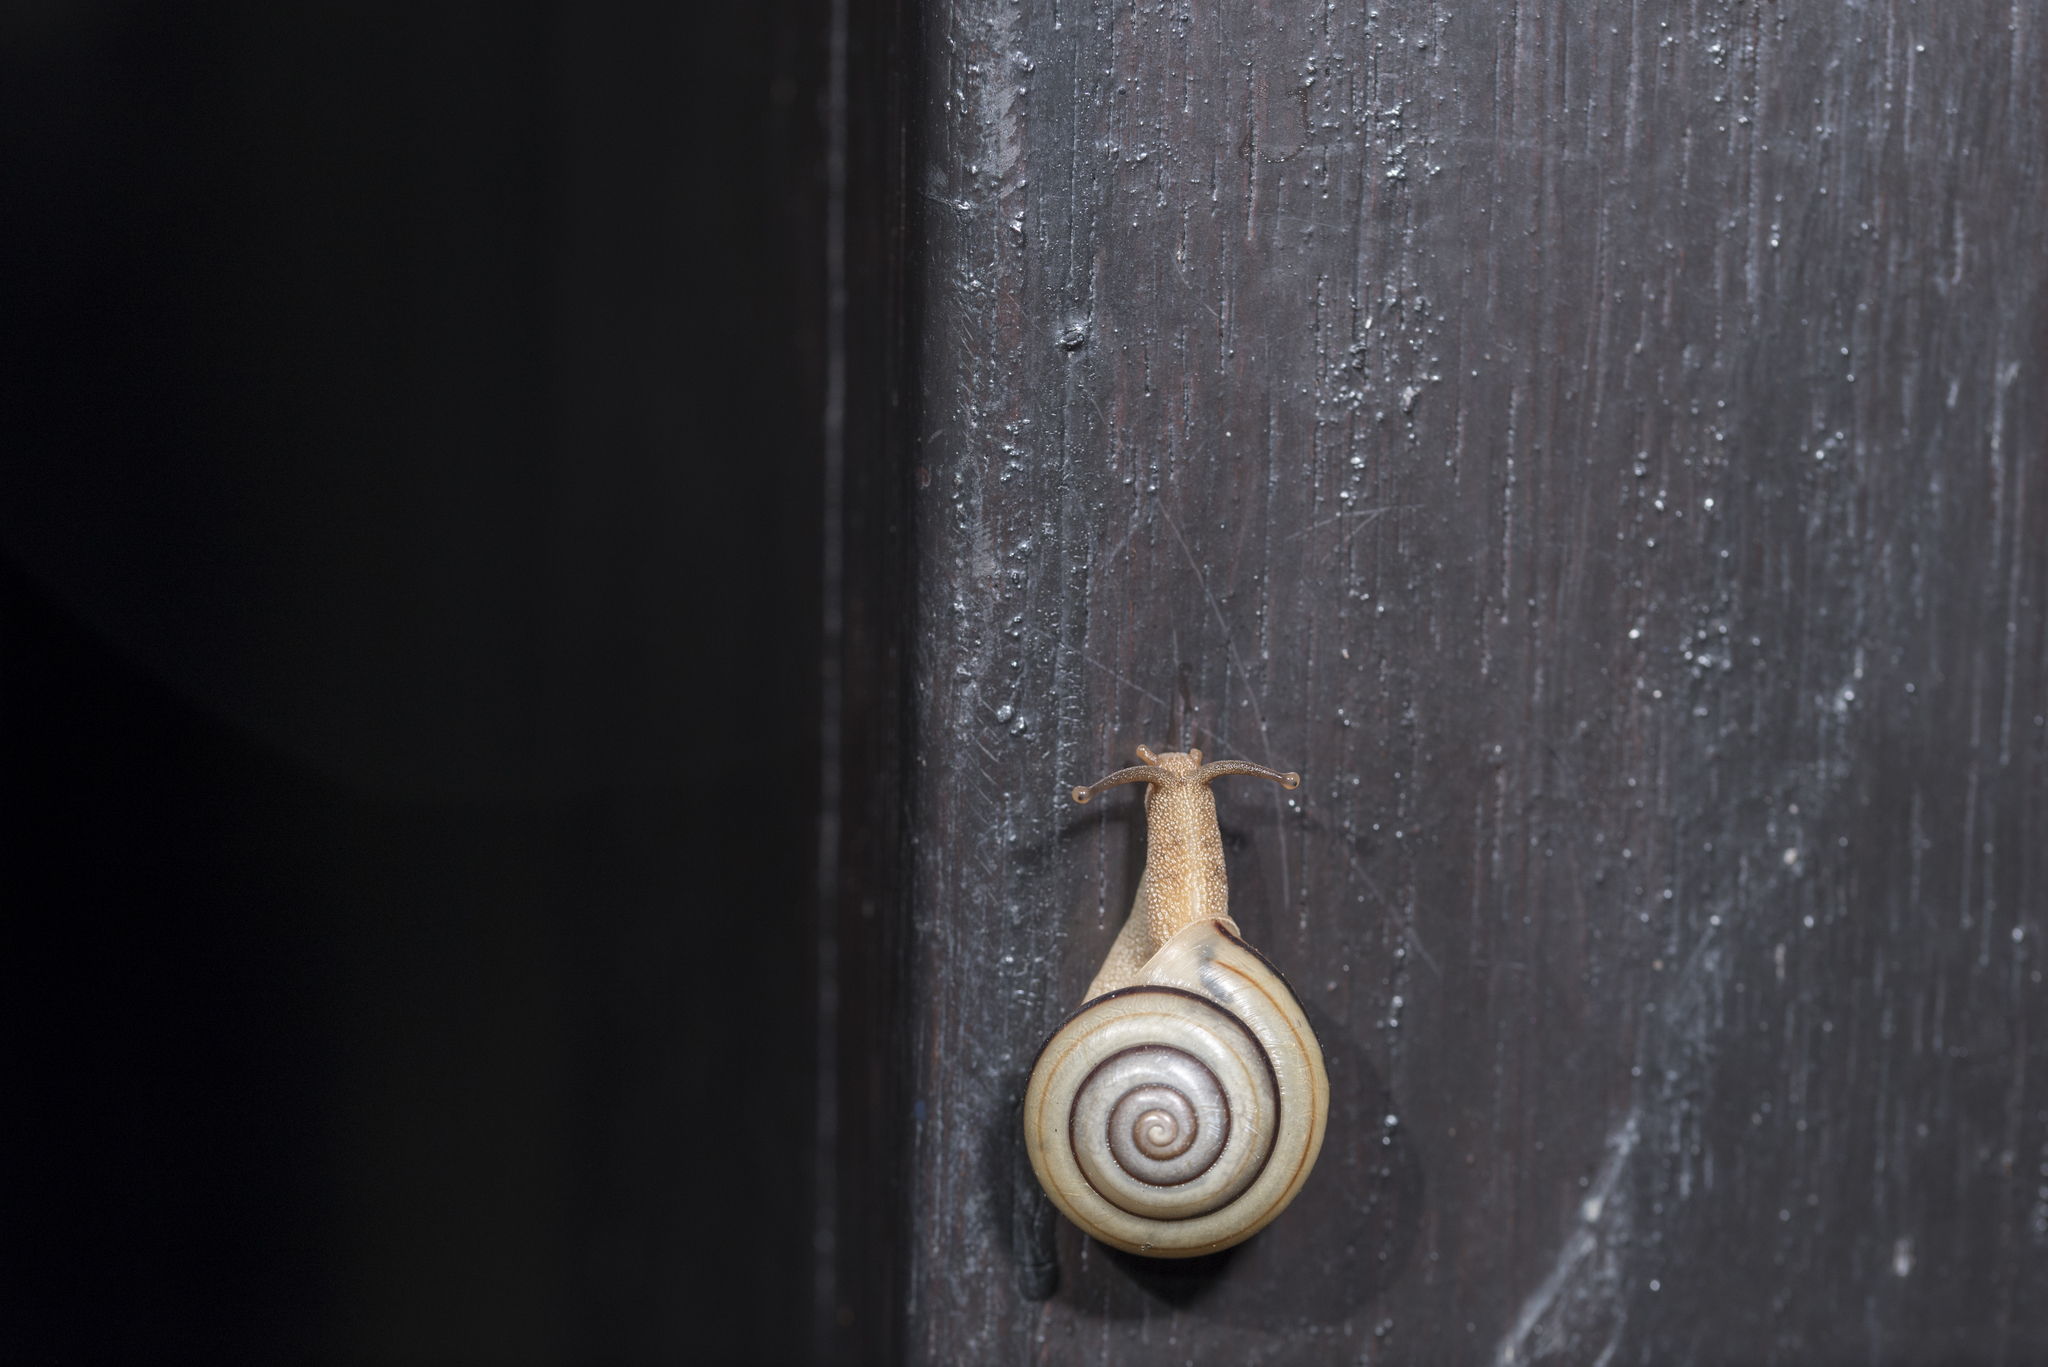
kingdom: Animalia
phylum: Mollusca
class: Gastropoda
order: Stylommatophora
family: Camaenidae
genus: Pancala
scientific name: Pancala batanica
